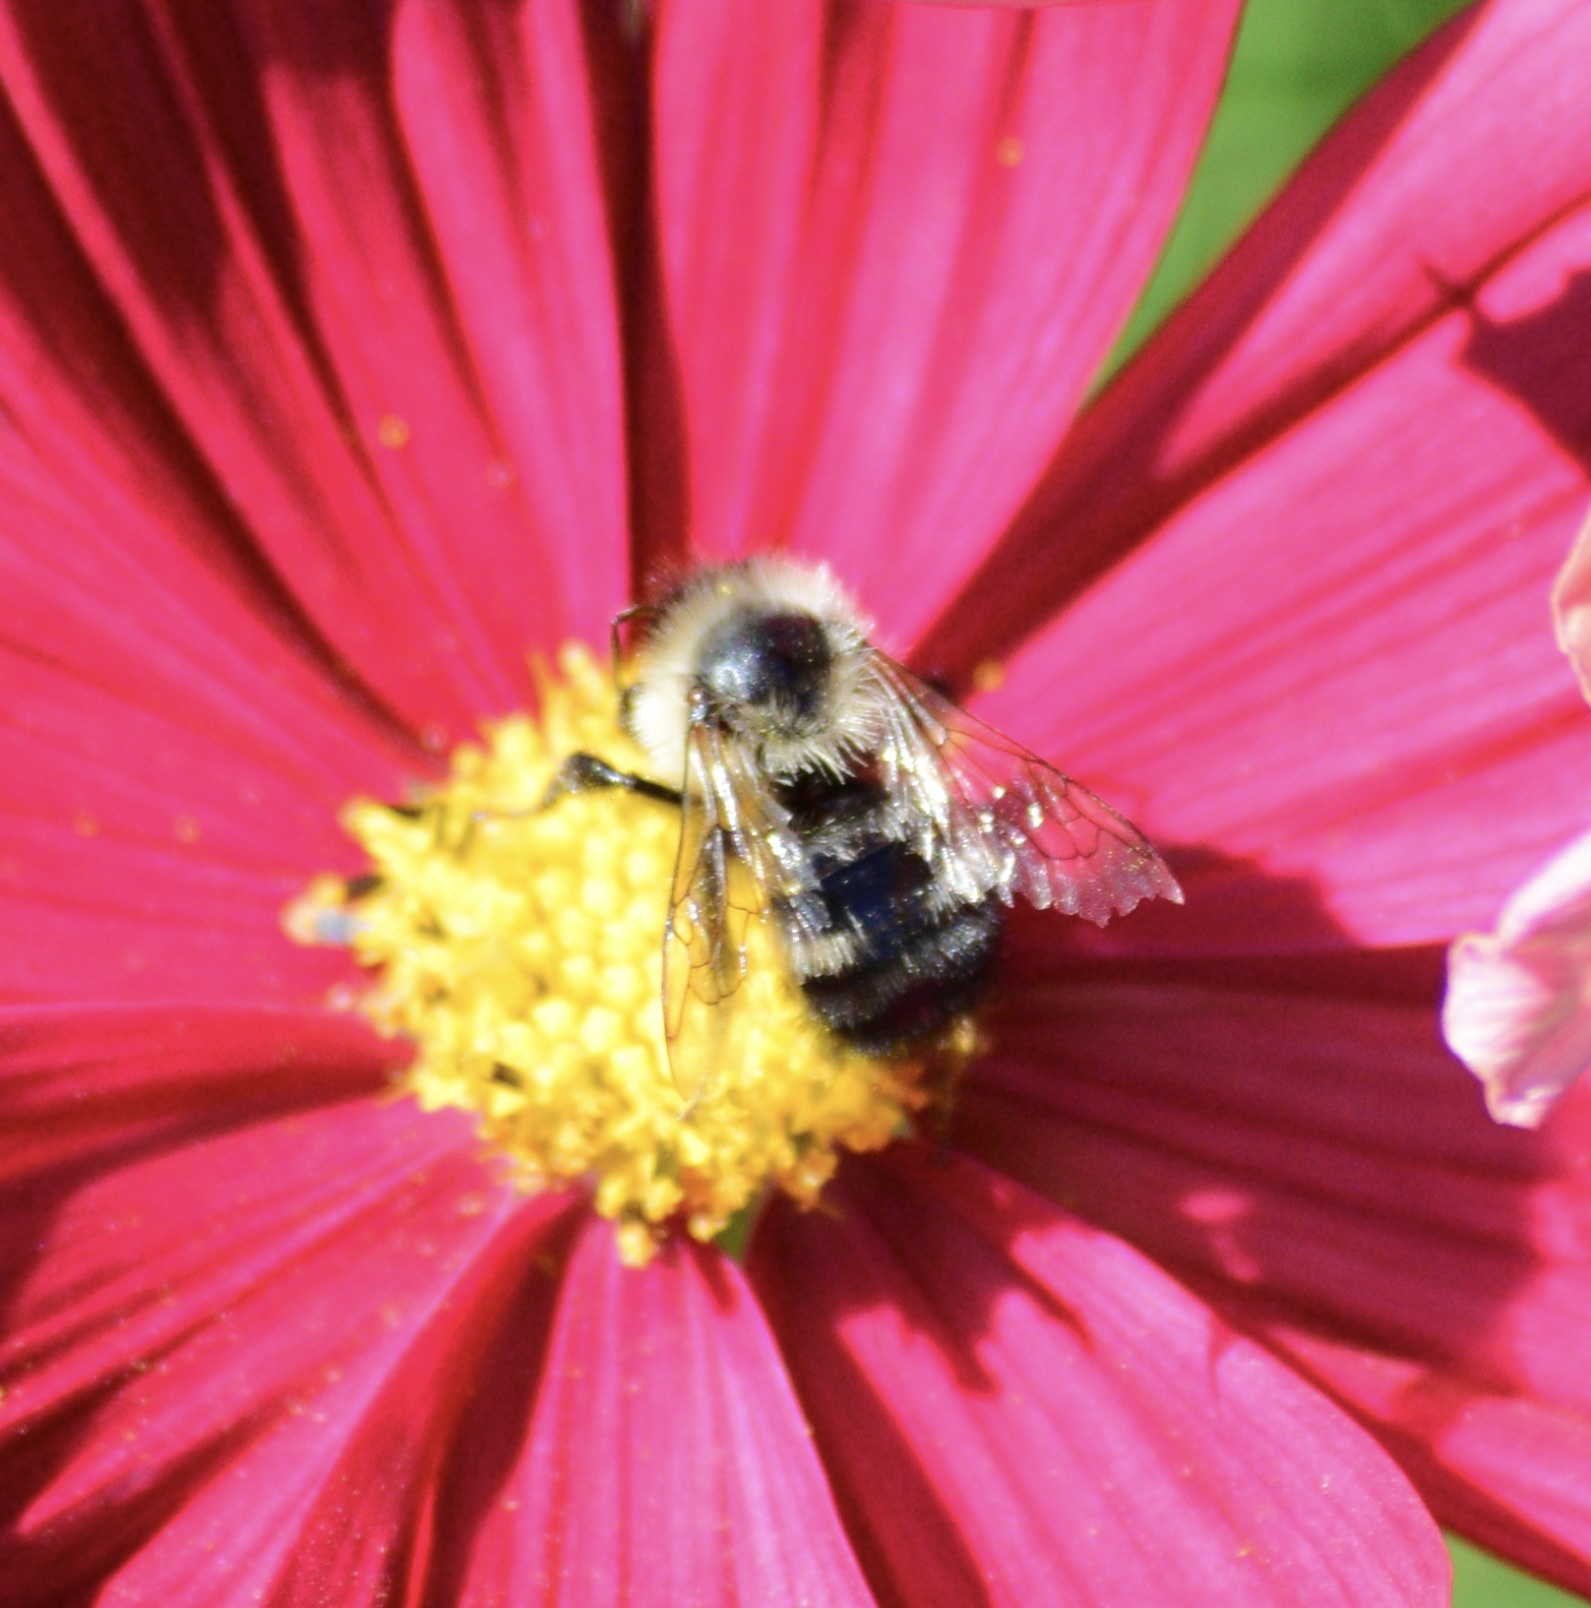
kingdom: Animalia
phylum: Arthropoda
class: Insecta
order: Hymenoptera
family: Apidae
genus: Pyrobombus
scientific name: Pyrobombus
